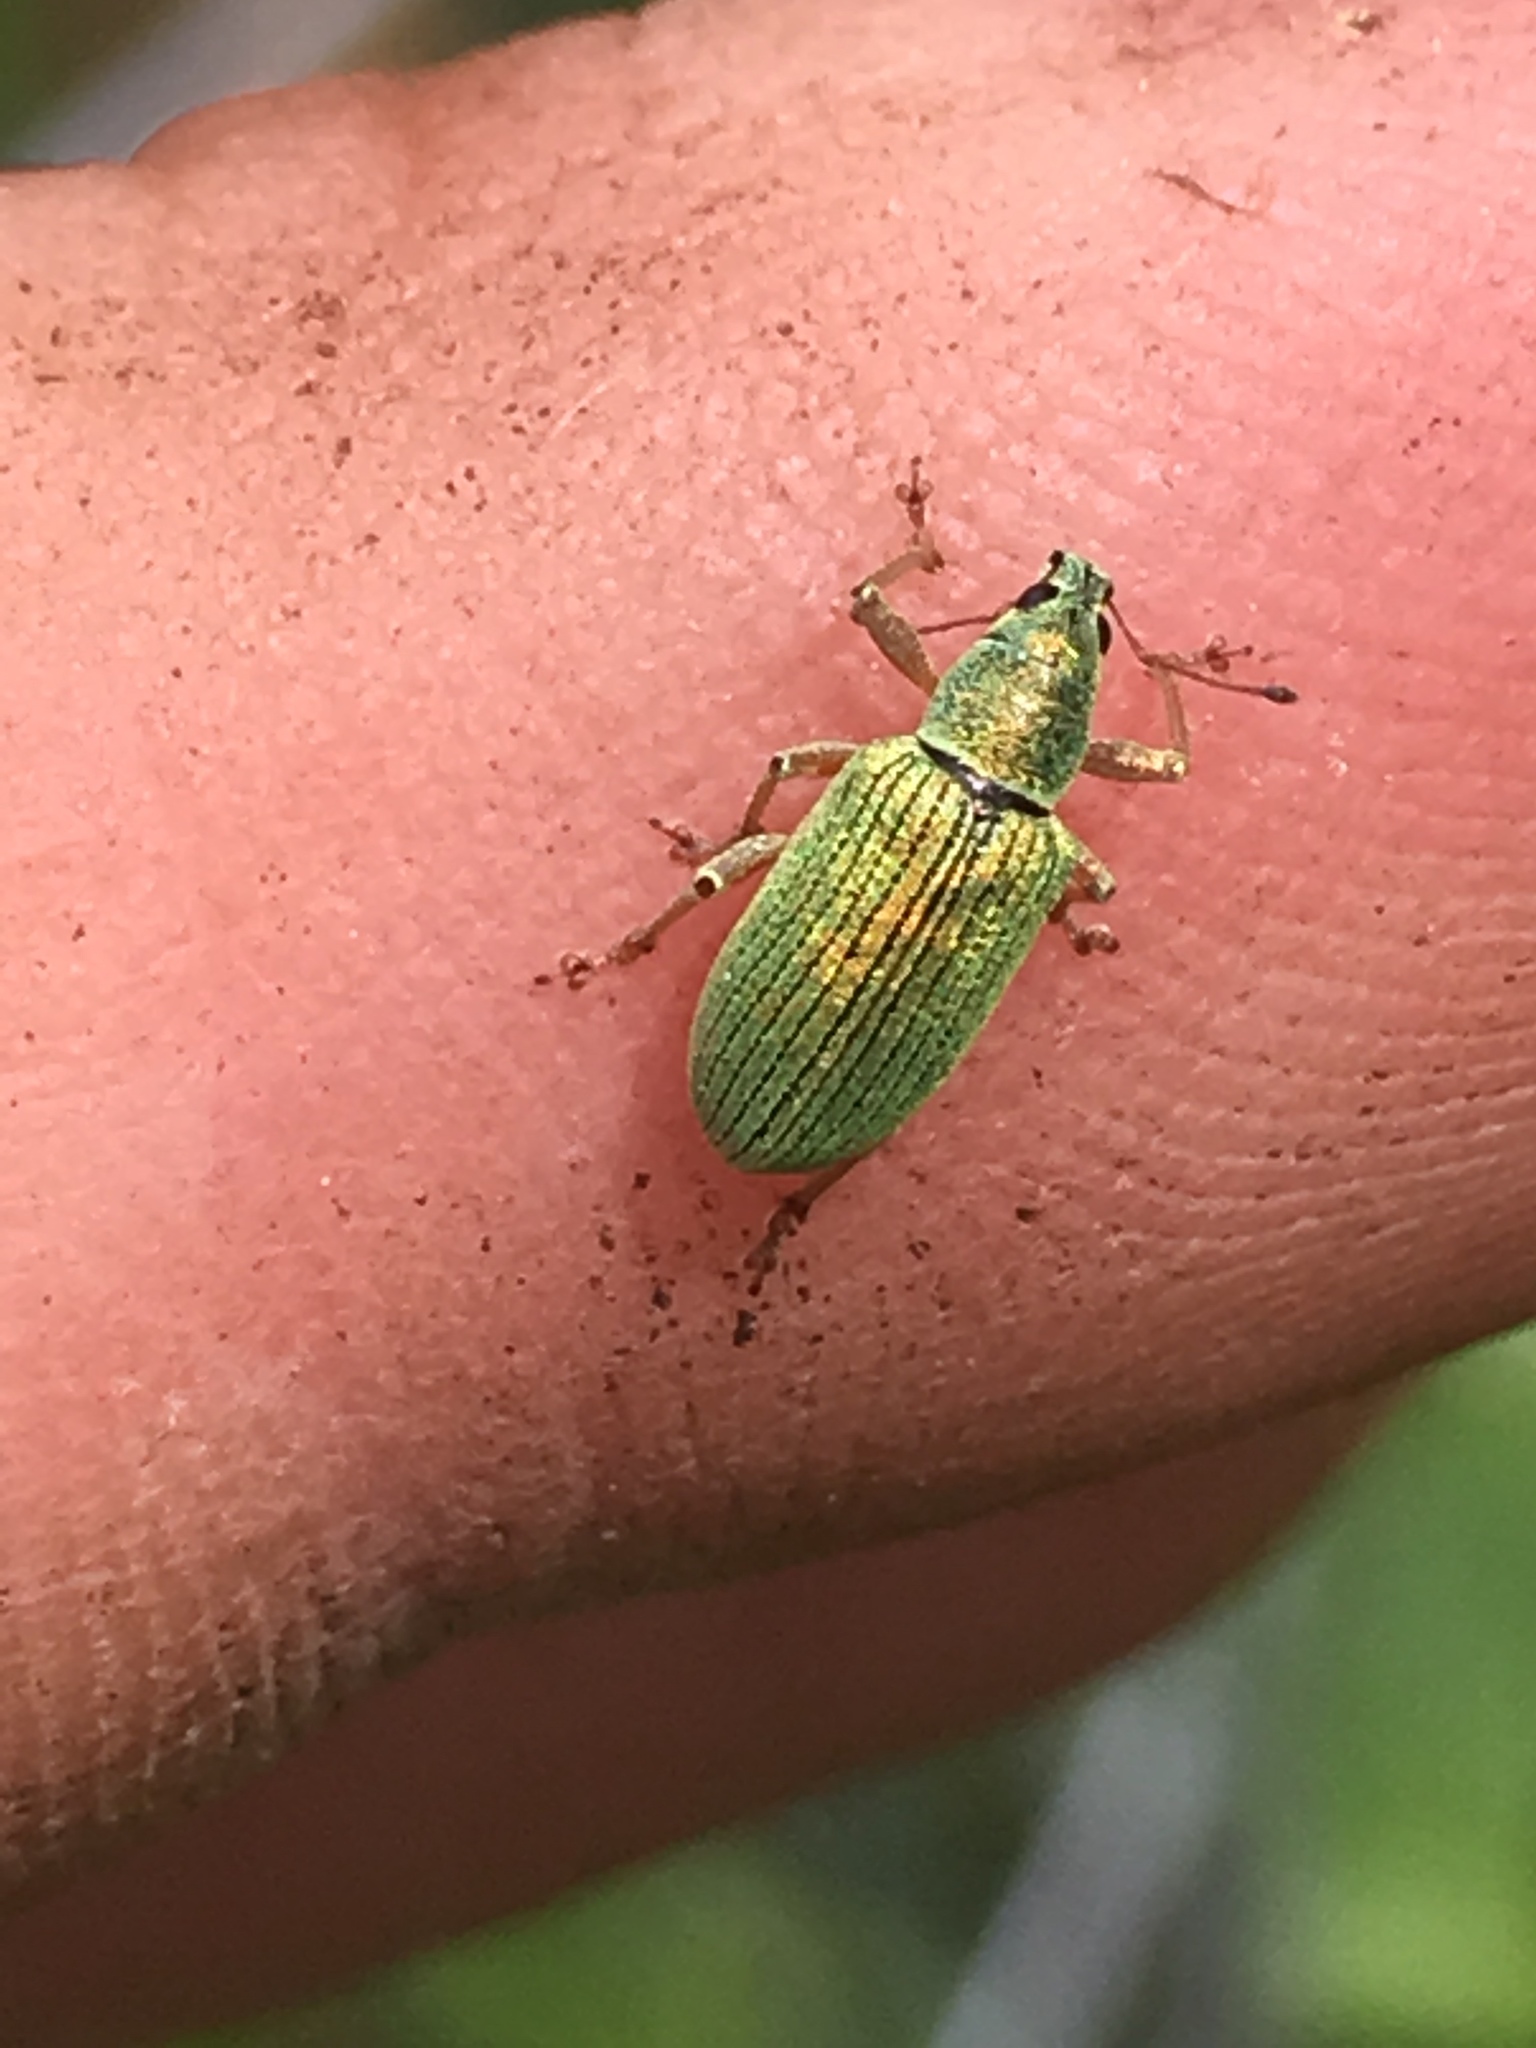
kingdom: Animalia
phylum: Arthropoda
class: Insecta
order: Coleoptera
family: Curculionidae
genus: Polydrusus
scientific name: Polydrusus formosus
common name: Weevil
